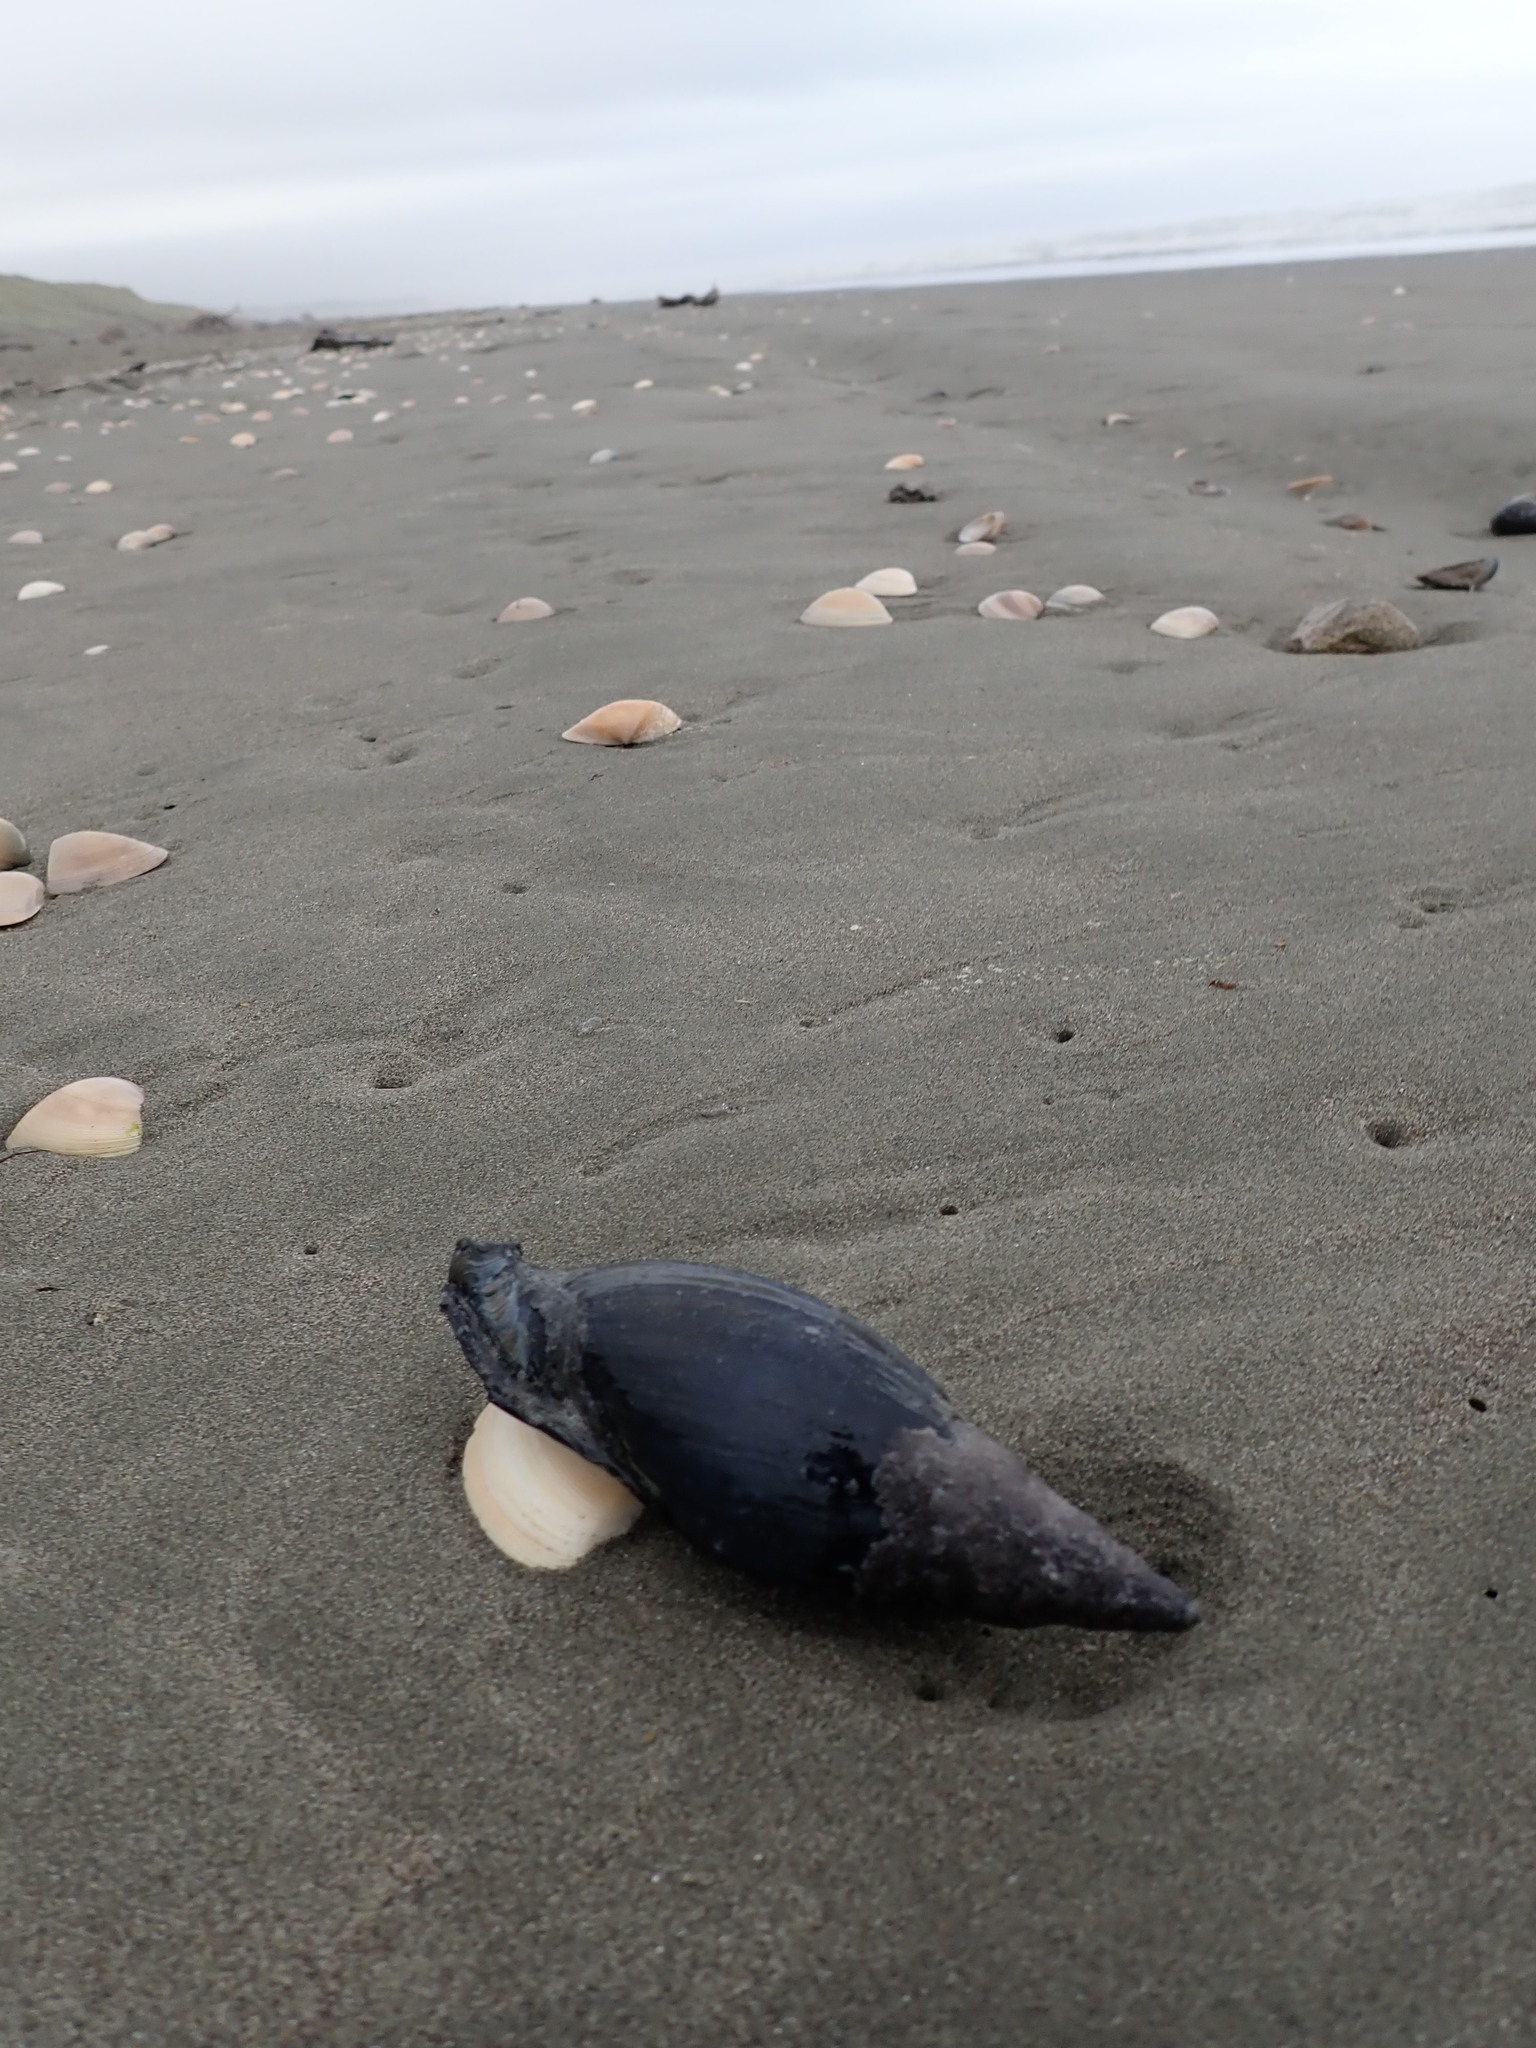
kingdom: Animalia
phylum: Mollusca
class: Gastropoda
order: Neogastropoda
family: Volutidae
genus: Alcithoe
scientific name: Alcithoe arabica
